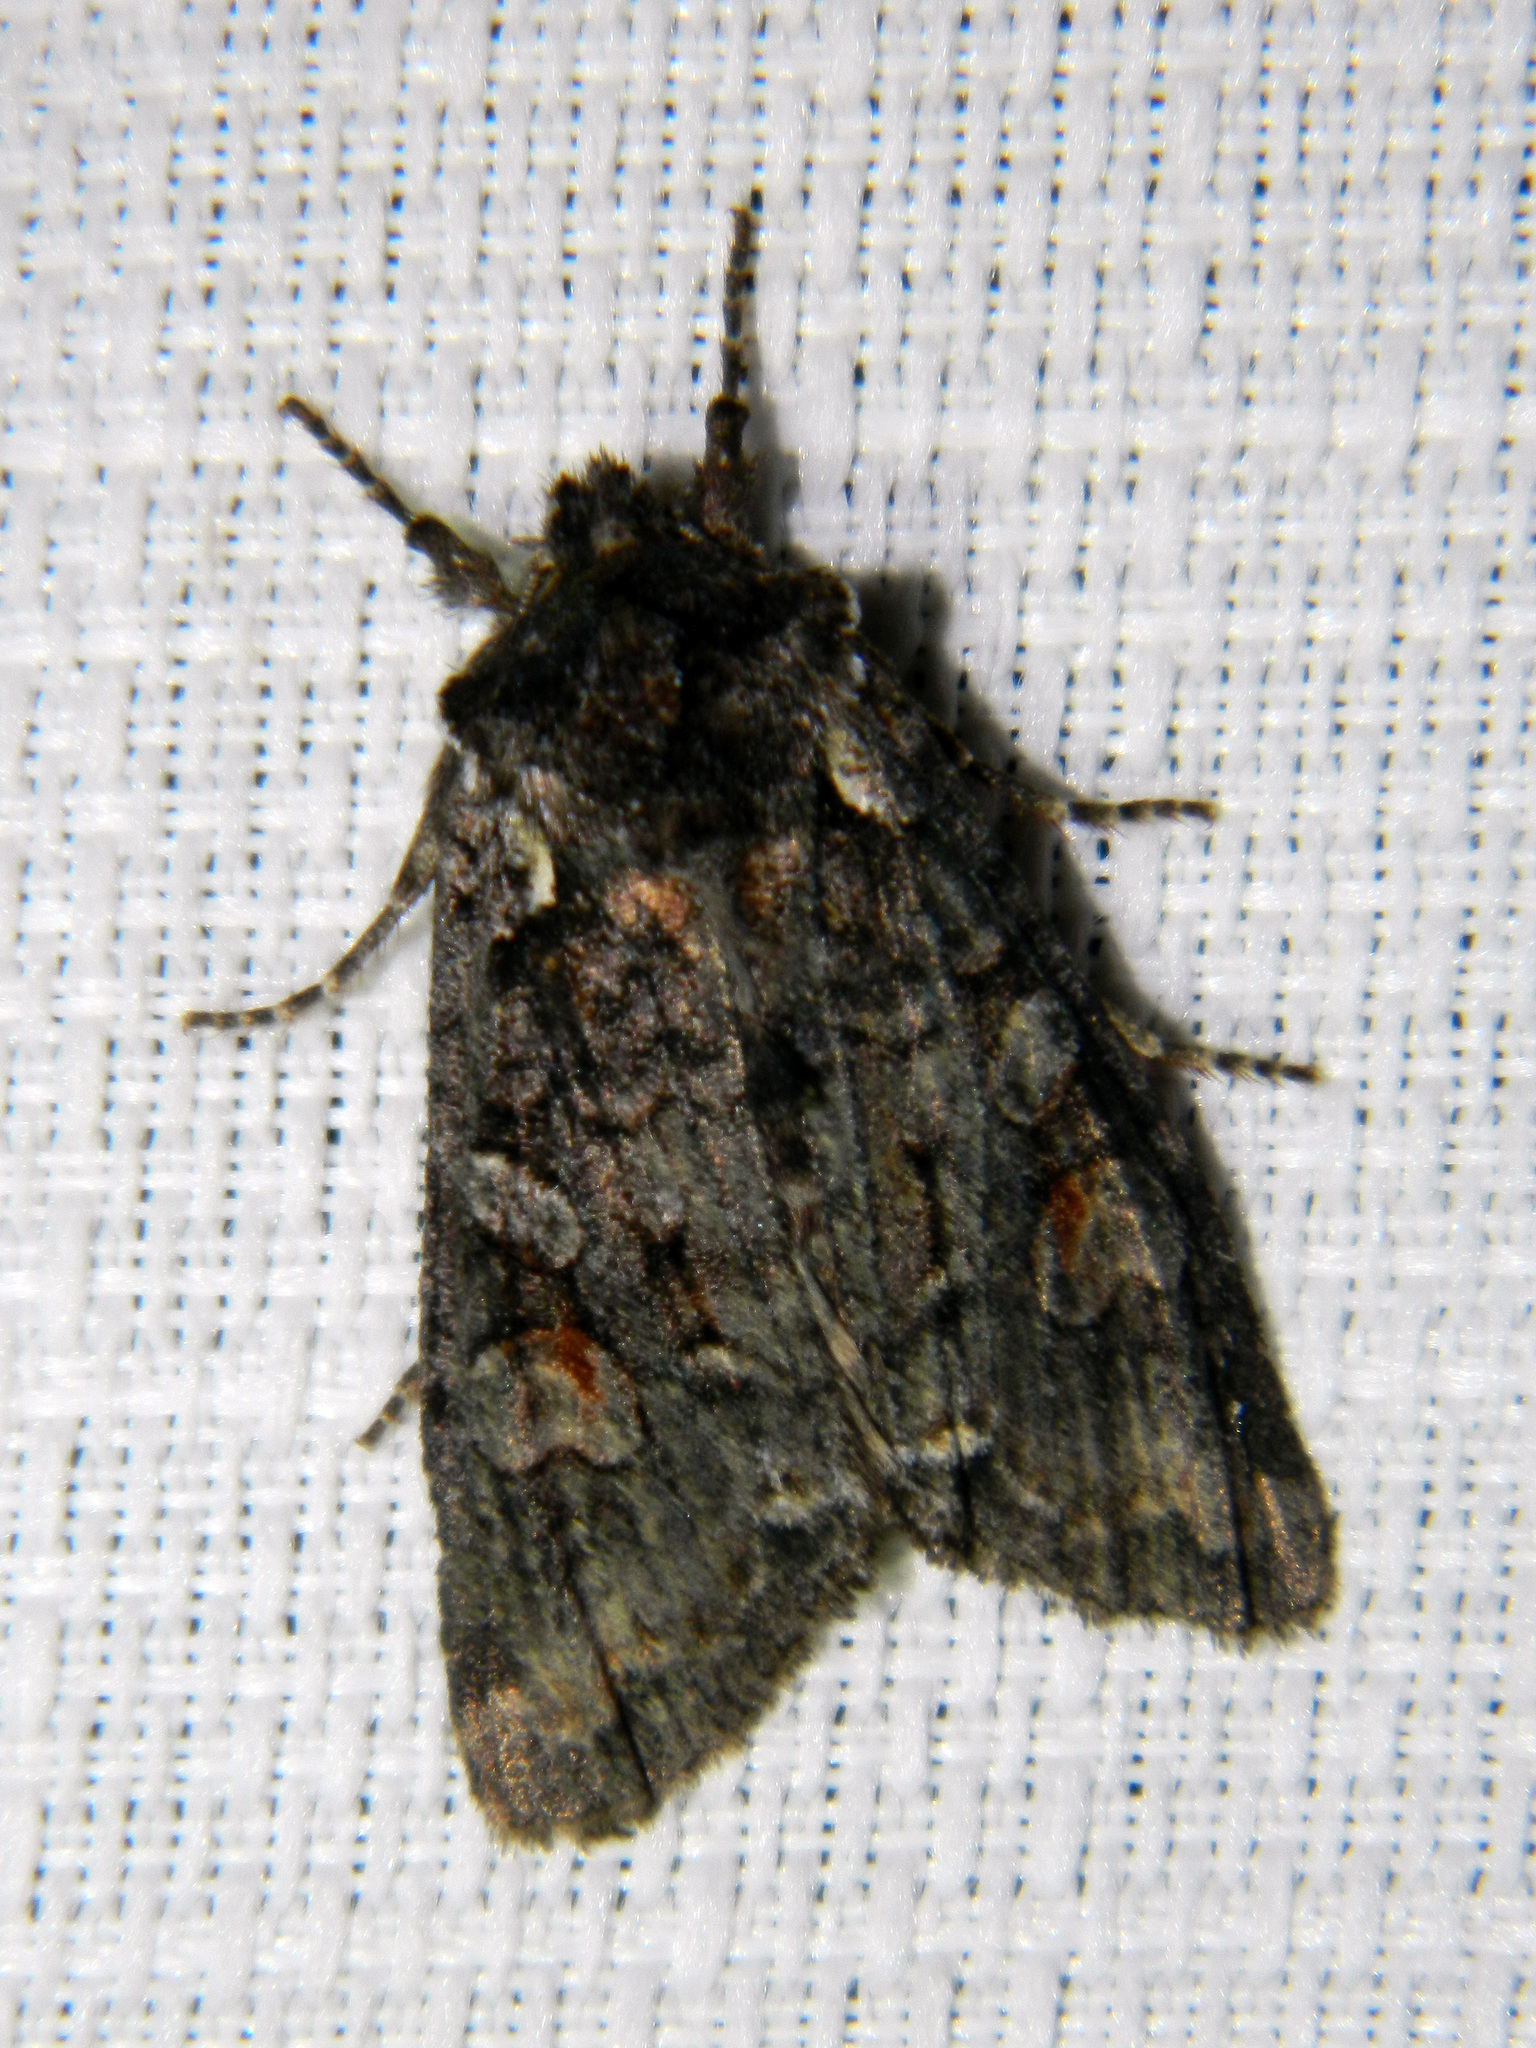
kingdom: Animalia
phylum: Arthropoda
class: Insecta
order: Lepidoptera
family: Noctuidae
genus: Lithophane
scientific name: Lithophane pexata
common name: Plush-naped pinion moth
